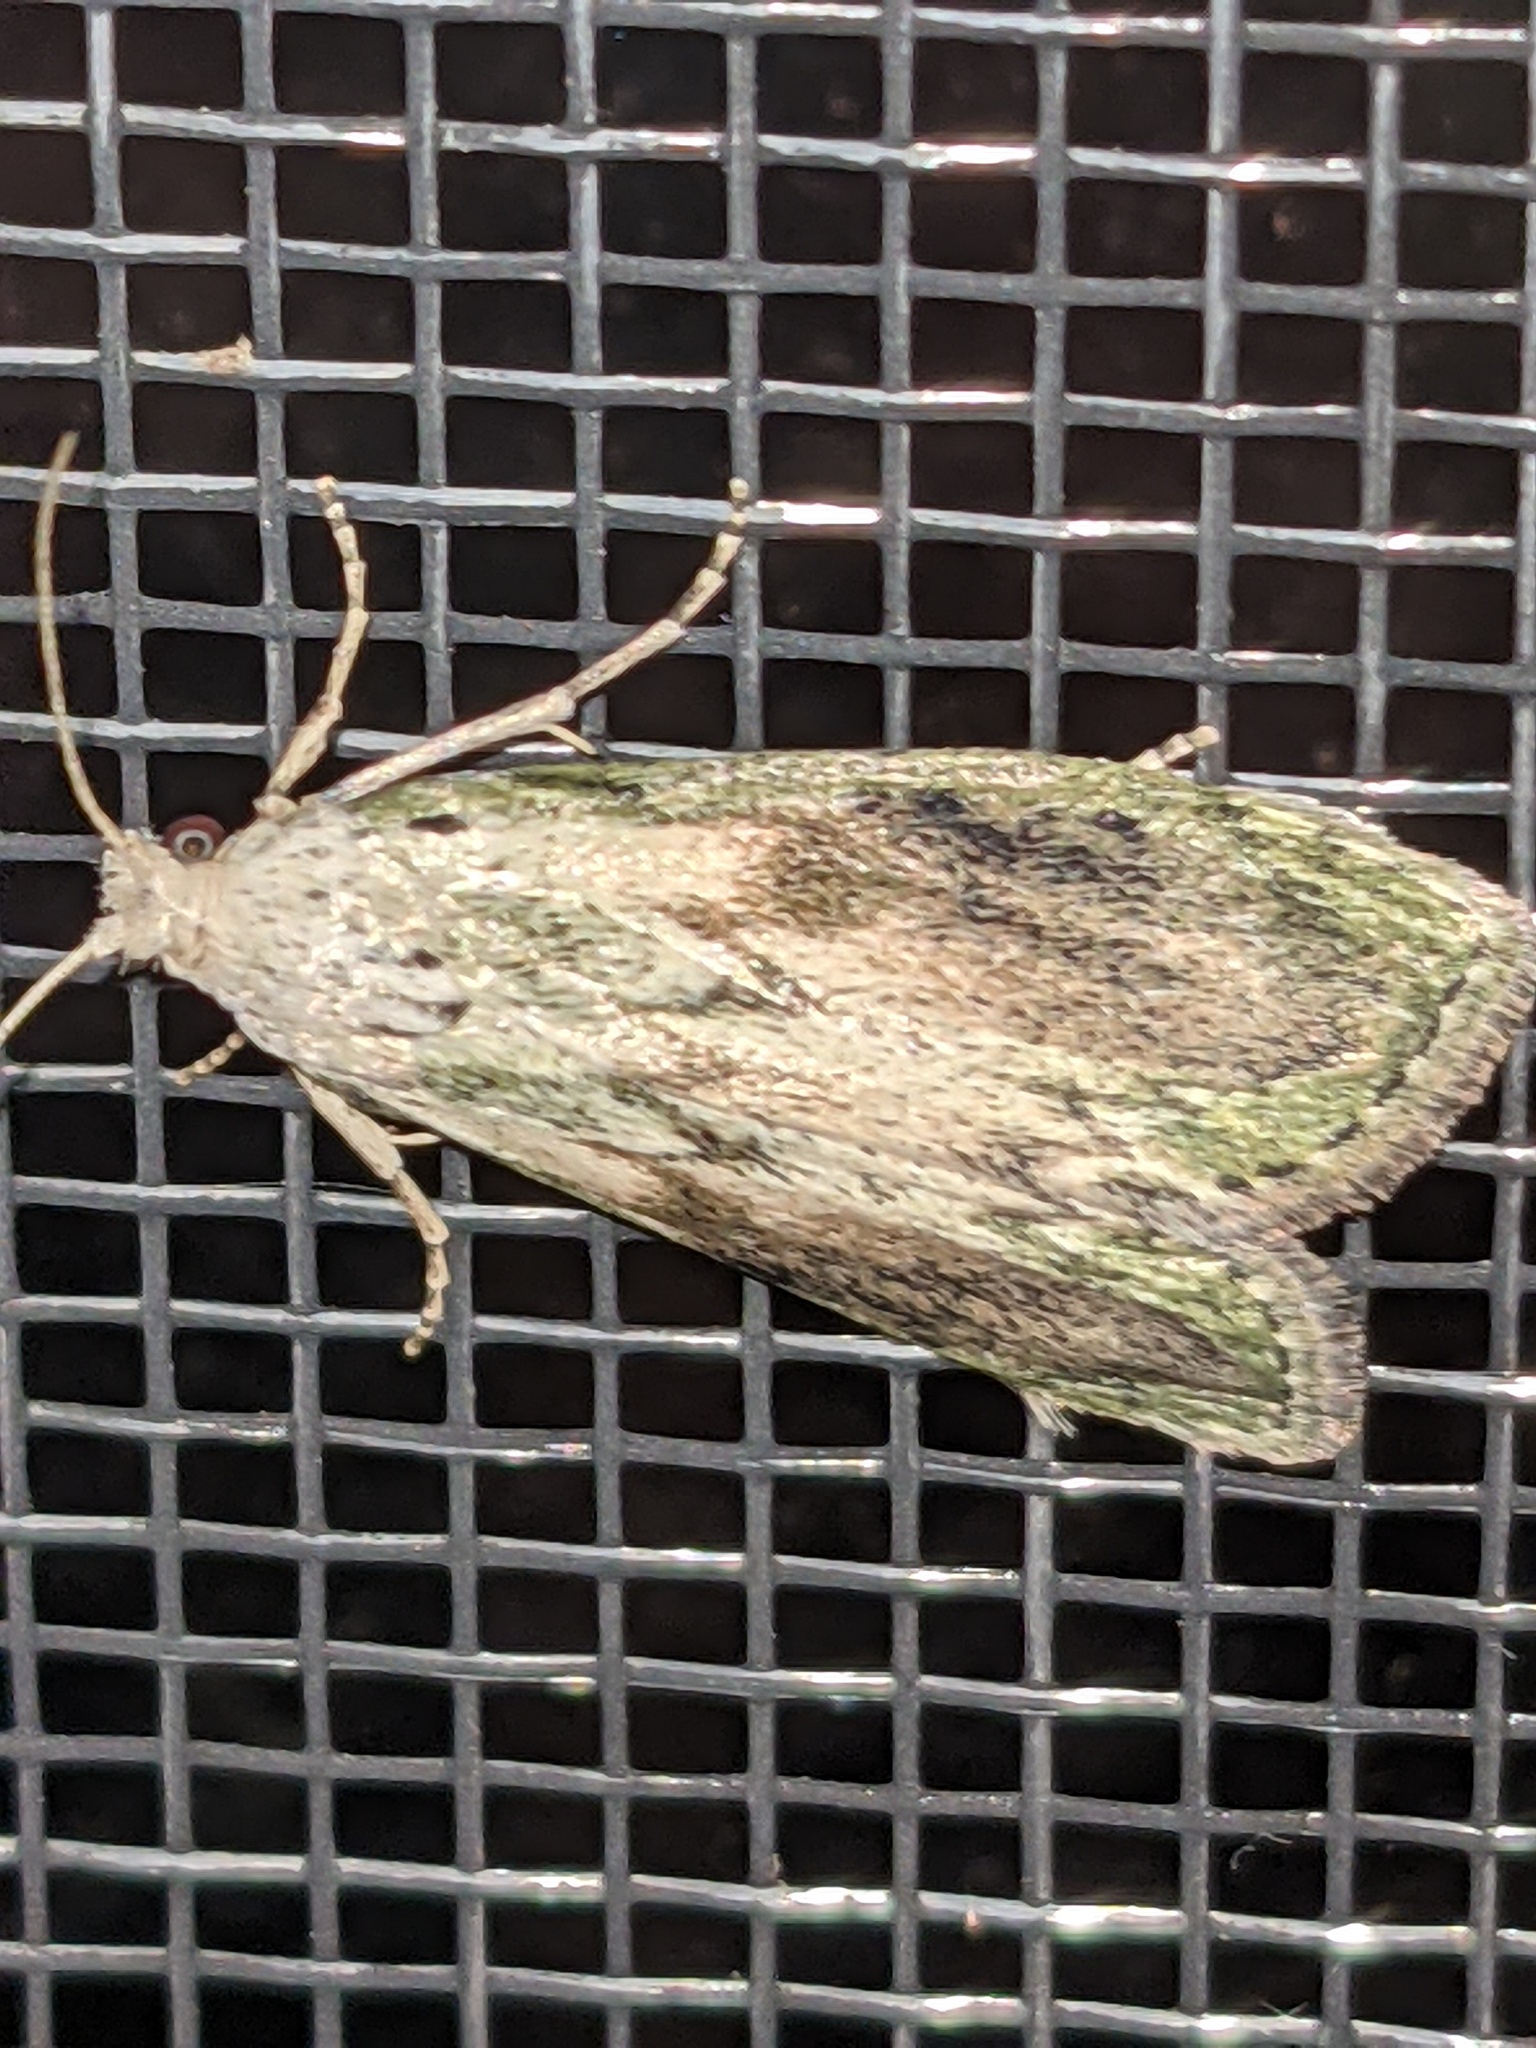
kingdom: Animalia
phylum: Arthropoda
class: Insecta
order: Lepidoptera
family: Pyralidae
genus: Aphomia
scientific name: Aphomia sociella
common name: Bee moth
